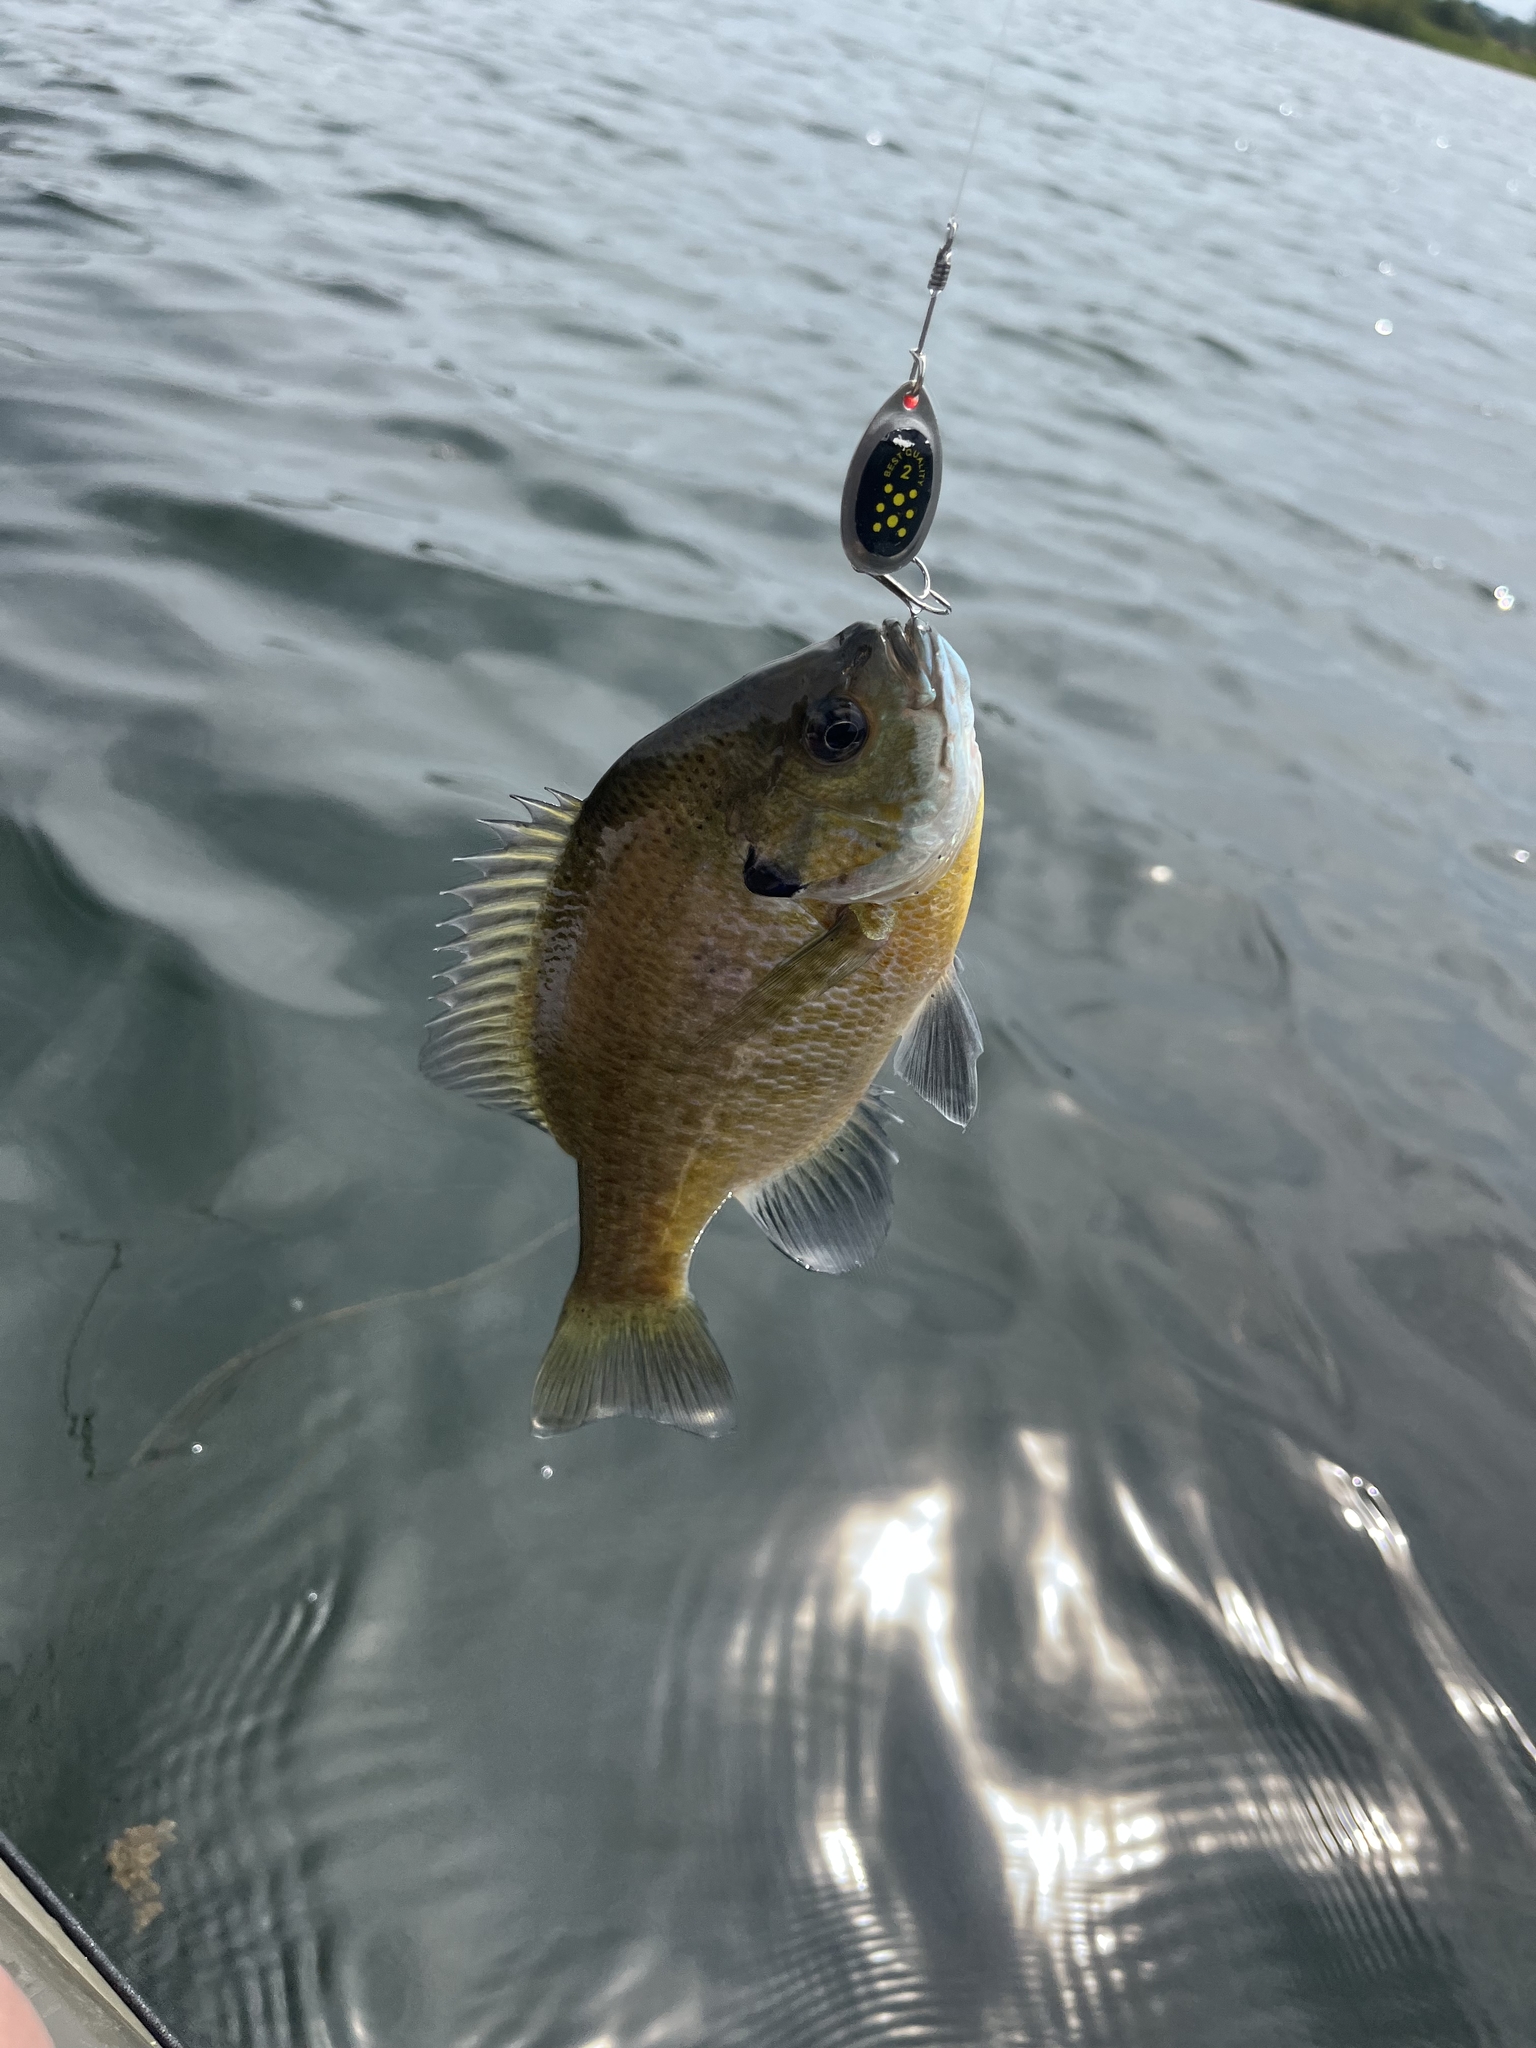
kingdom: Animalia
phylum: Chordata
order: Perciformes
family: Centrarchidae
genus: Lepomis
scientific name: Lepomis macrochirus
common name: Bluegill
